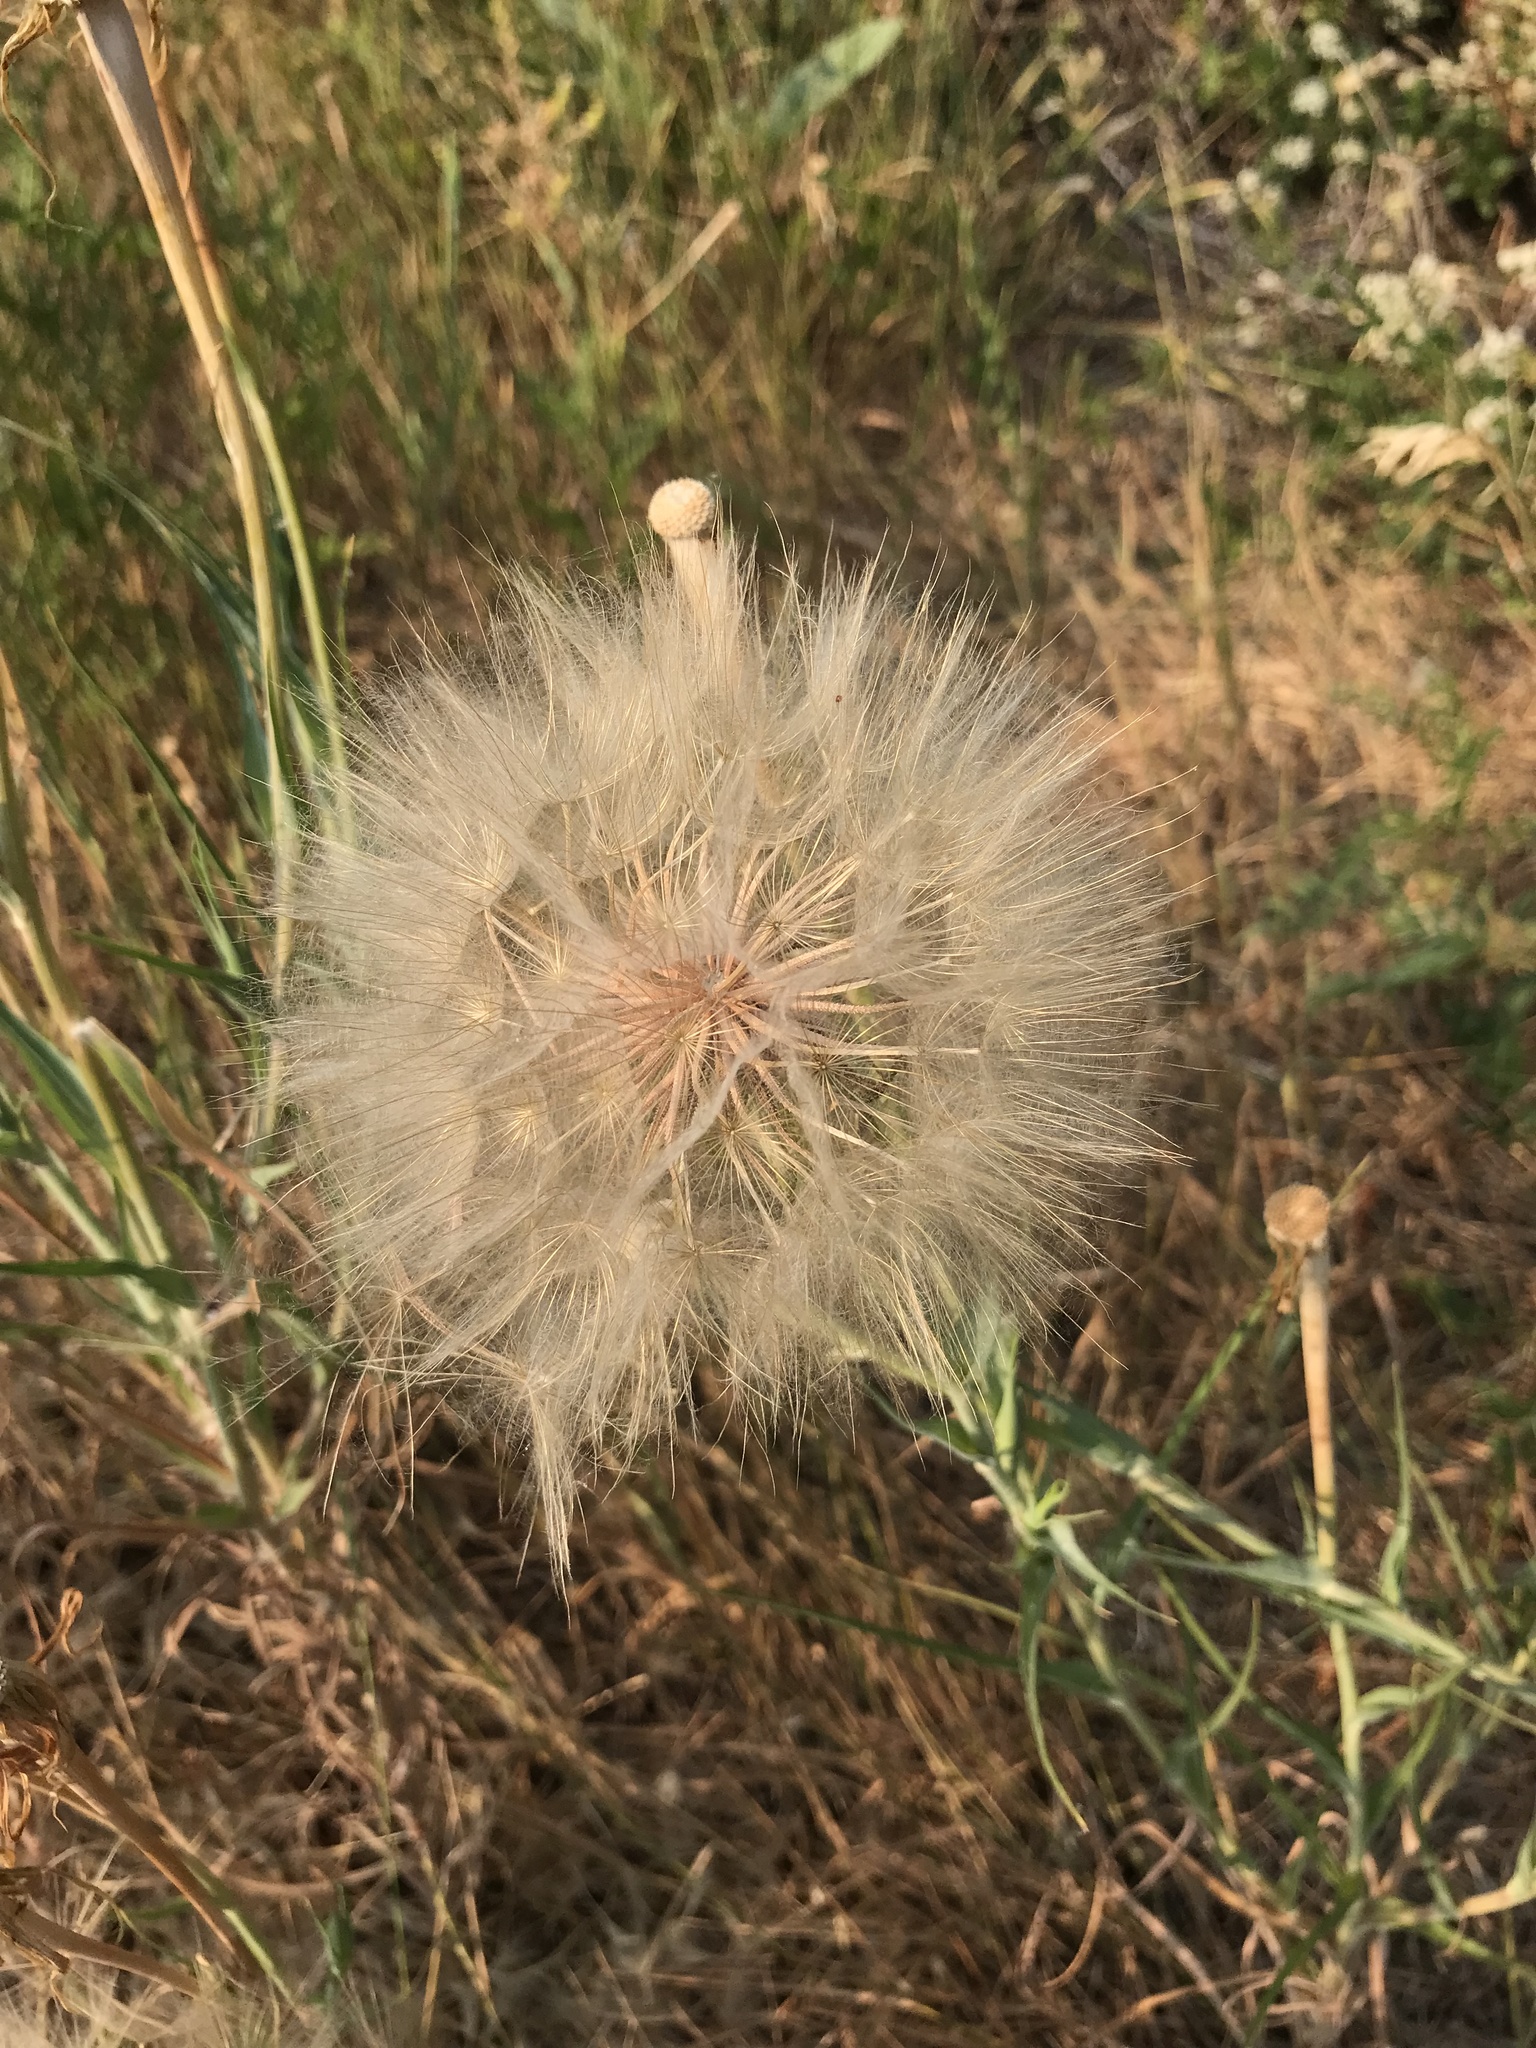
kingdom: Plantae
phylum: Tracheophyta
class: Magnoliopsida
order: Asterales
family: Asteraceae
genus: Tragopogon
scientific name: Tragopogon dubius
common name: Yellow salsify
